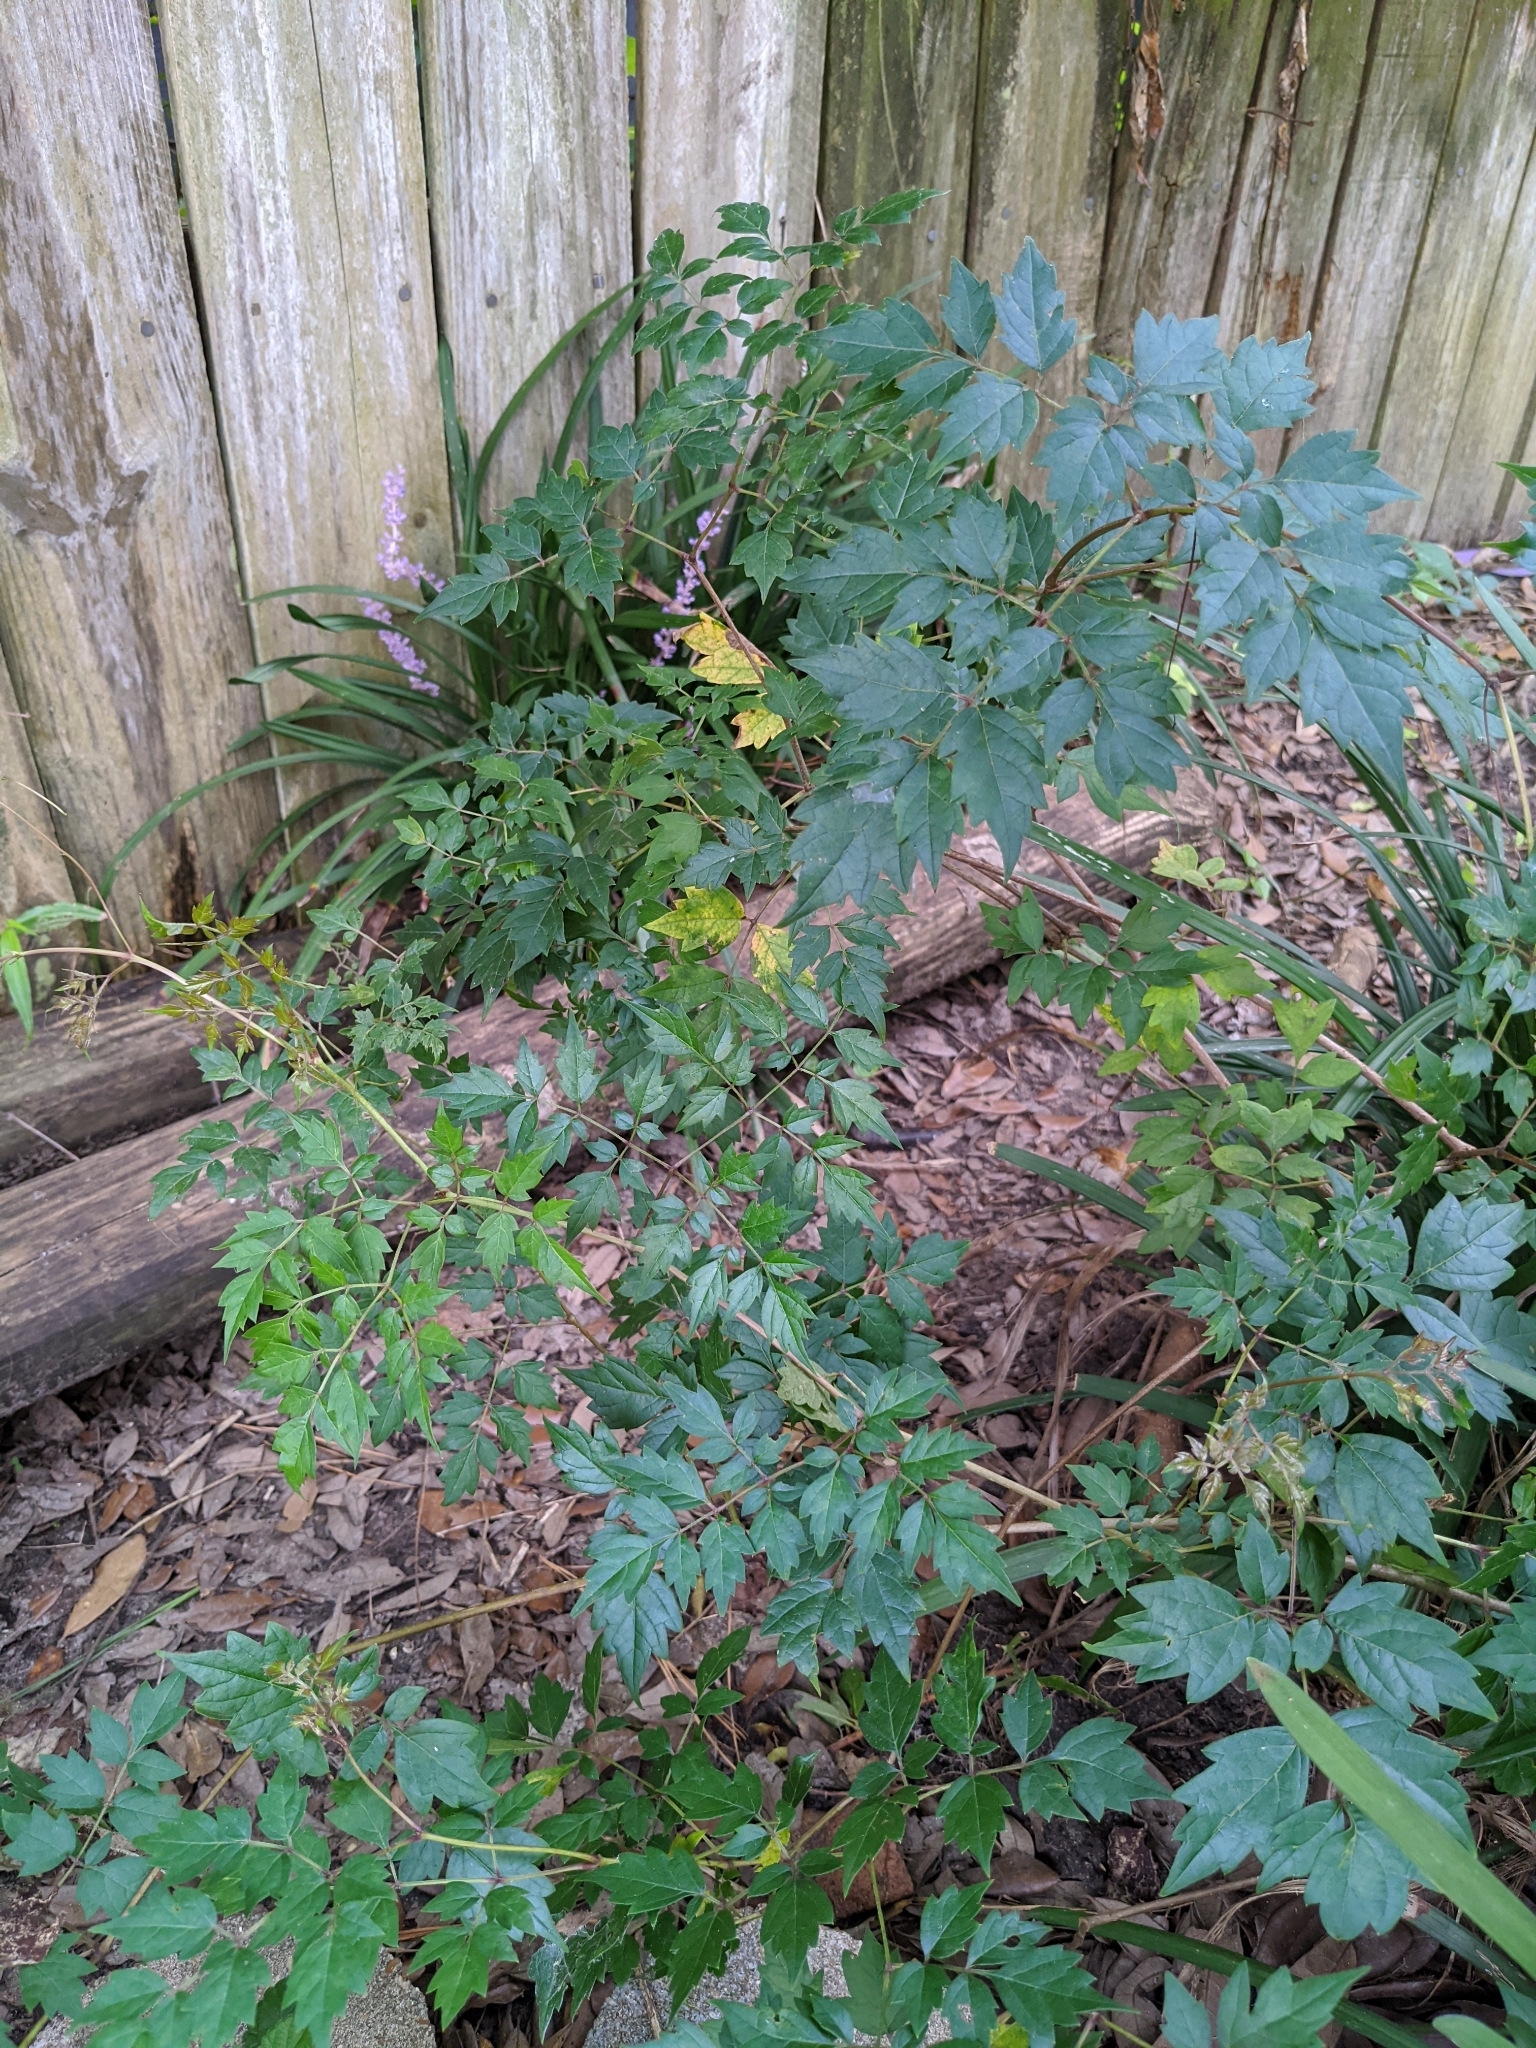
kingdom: Plantae
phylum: Tracheophyta
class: Magnoliopsida
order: Vitales
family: Vitaceae
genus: Nekemias
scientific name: Nekemias arborea
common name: Peppervine
